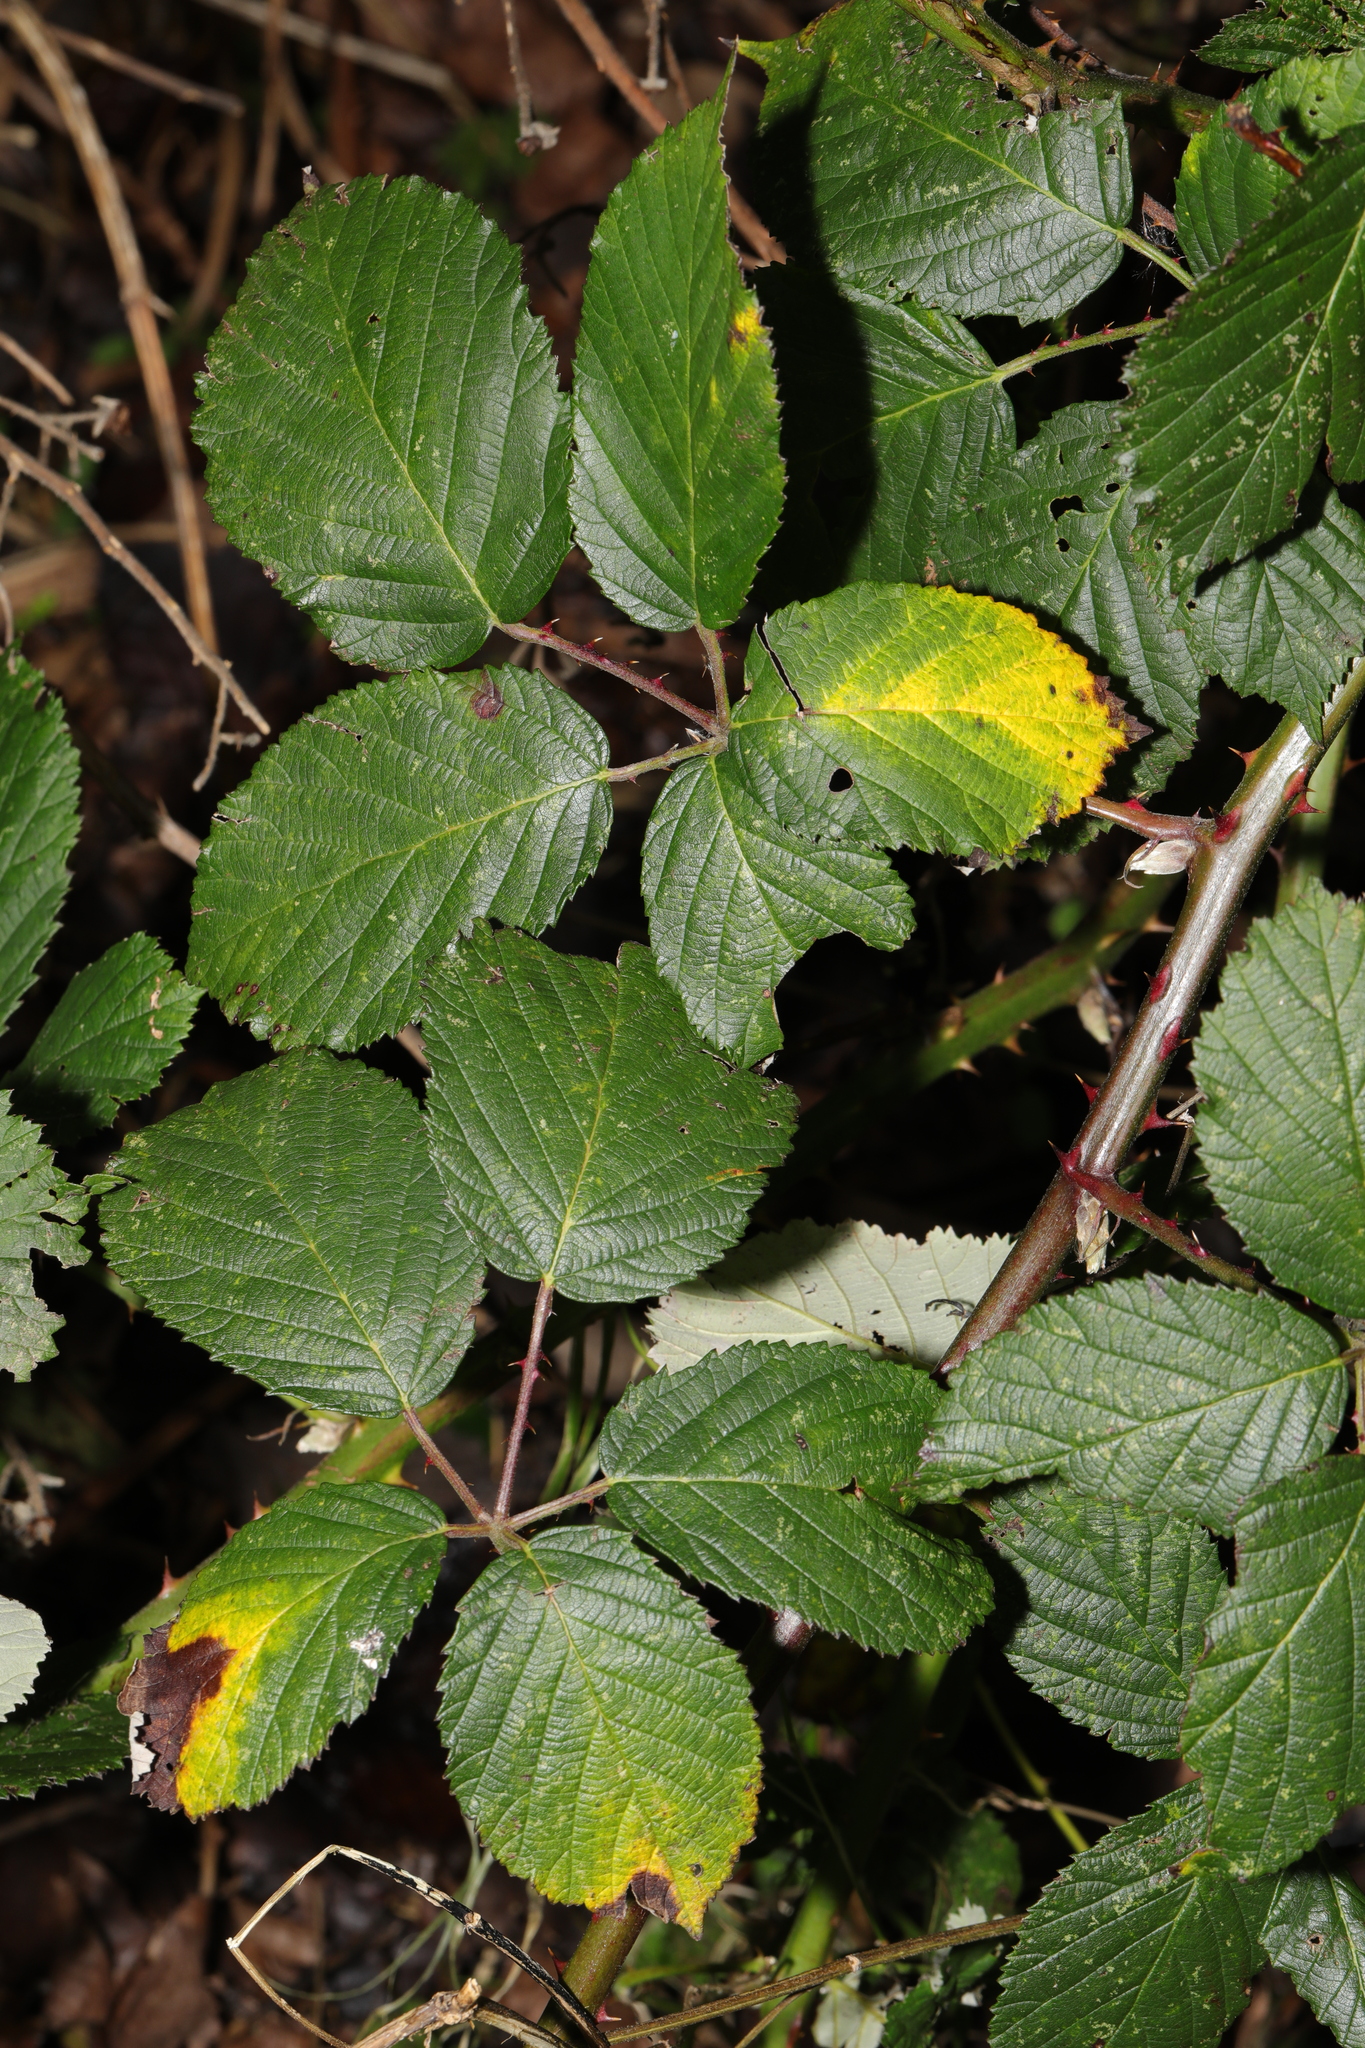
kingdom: Plantae
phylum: Tracheophyta
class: Magnoliopsida
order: Rosales
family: Rosaceae
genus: Rubus
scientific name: Rubus armeniacus
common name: Himalayan blackberry
